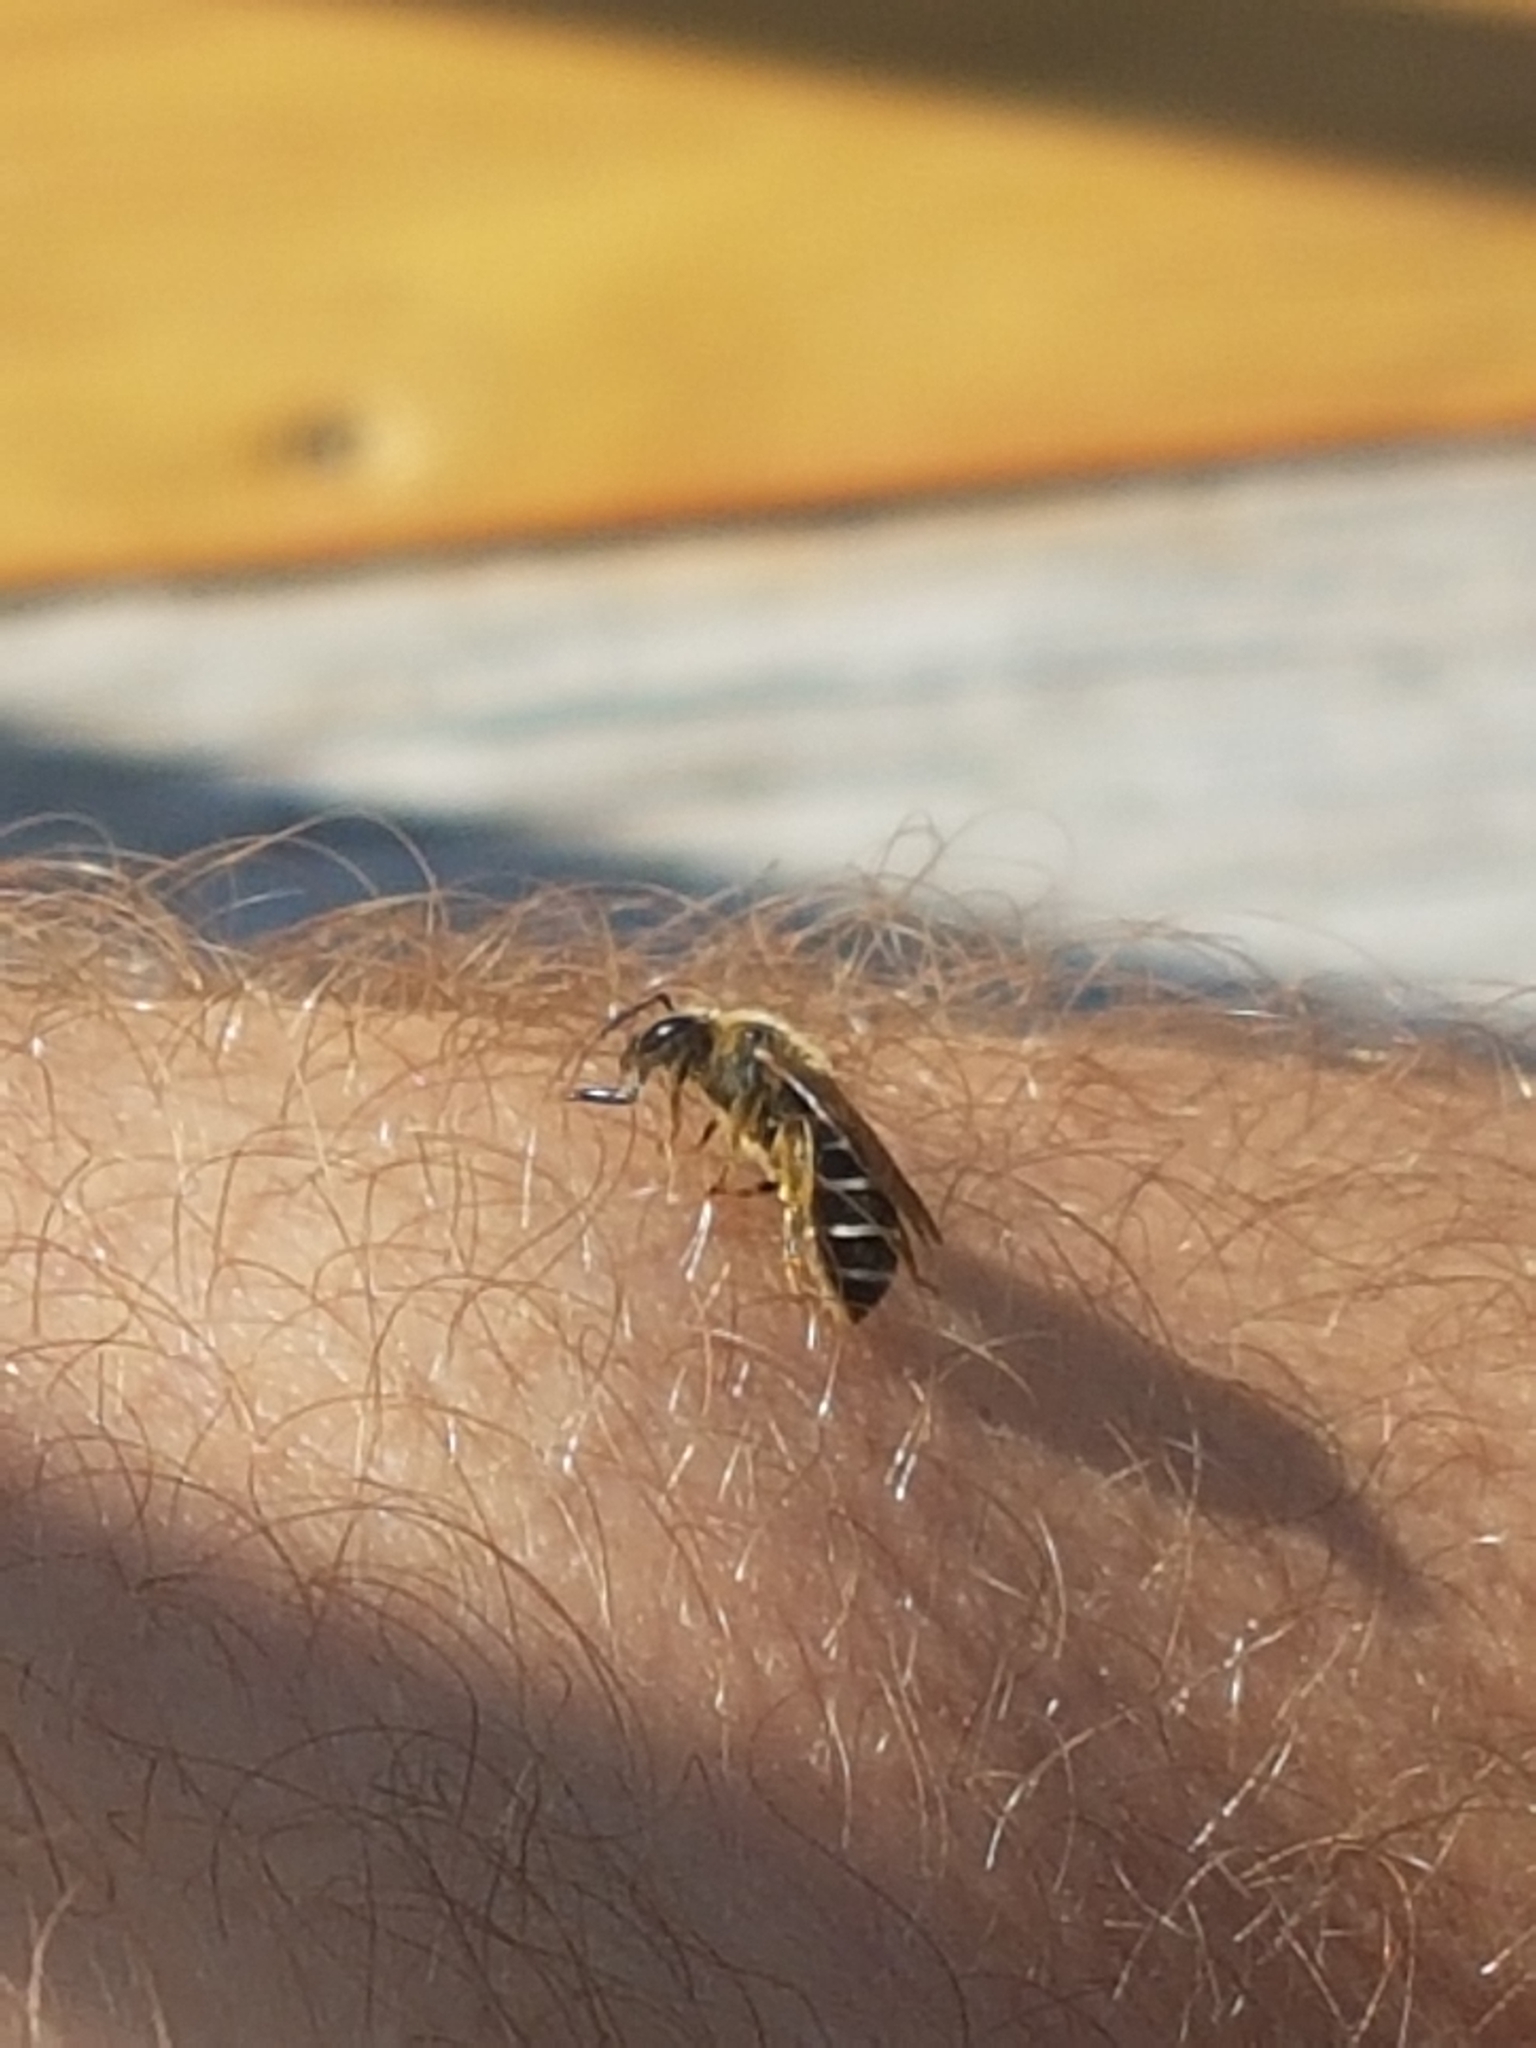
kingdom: Animalia
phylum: Arthropoda
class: Insecta
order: Hymenoptera
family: Halictidae
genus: Halictus
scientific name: Halictus rubicundus
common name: Orange-legged furrow bee
